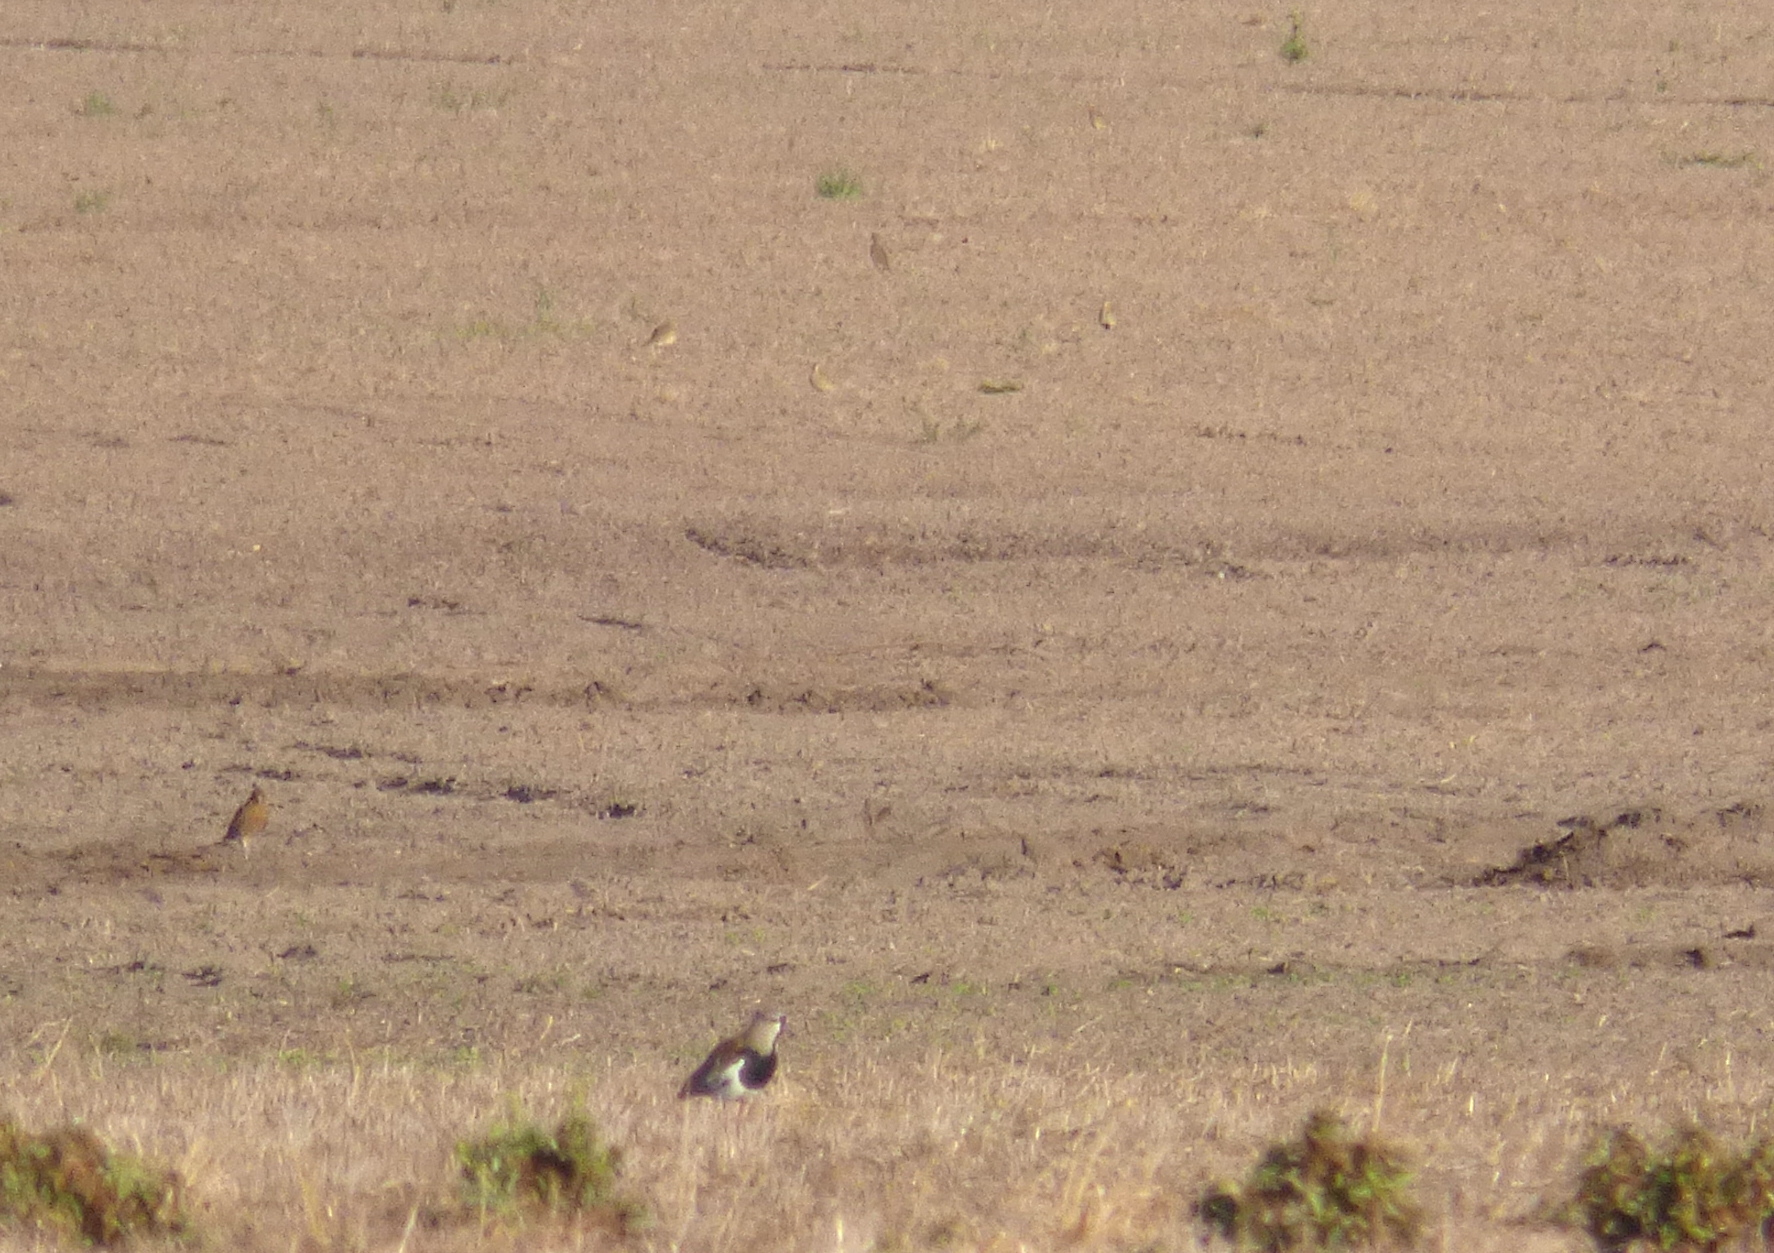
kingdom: Animalia
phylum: Chordata
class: Aves
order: Charadriiformes
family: Charadriidae
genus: Vanellus
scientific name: Vanellus chilensis
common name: Southern lapwing
